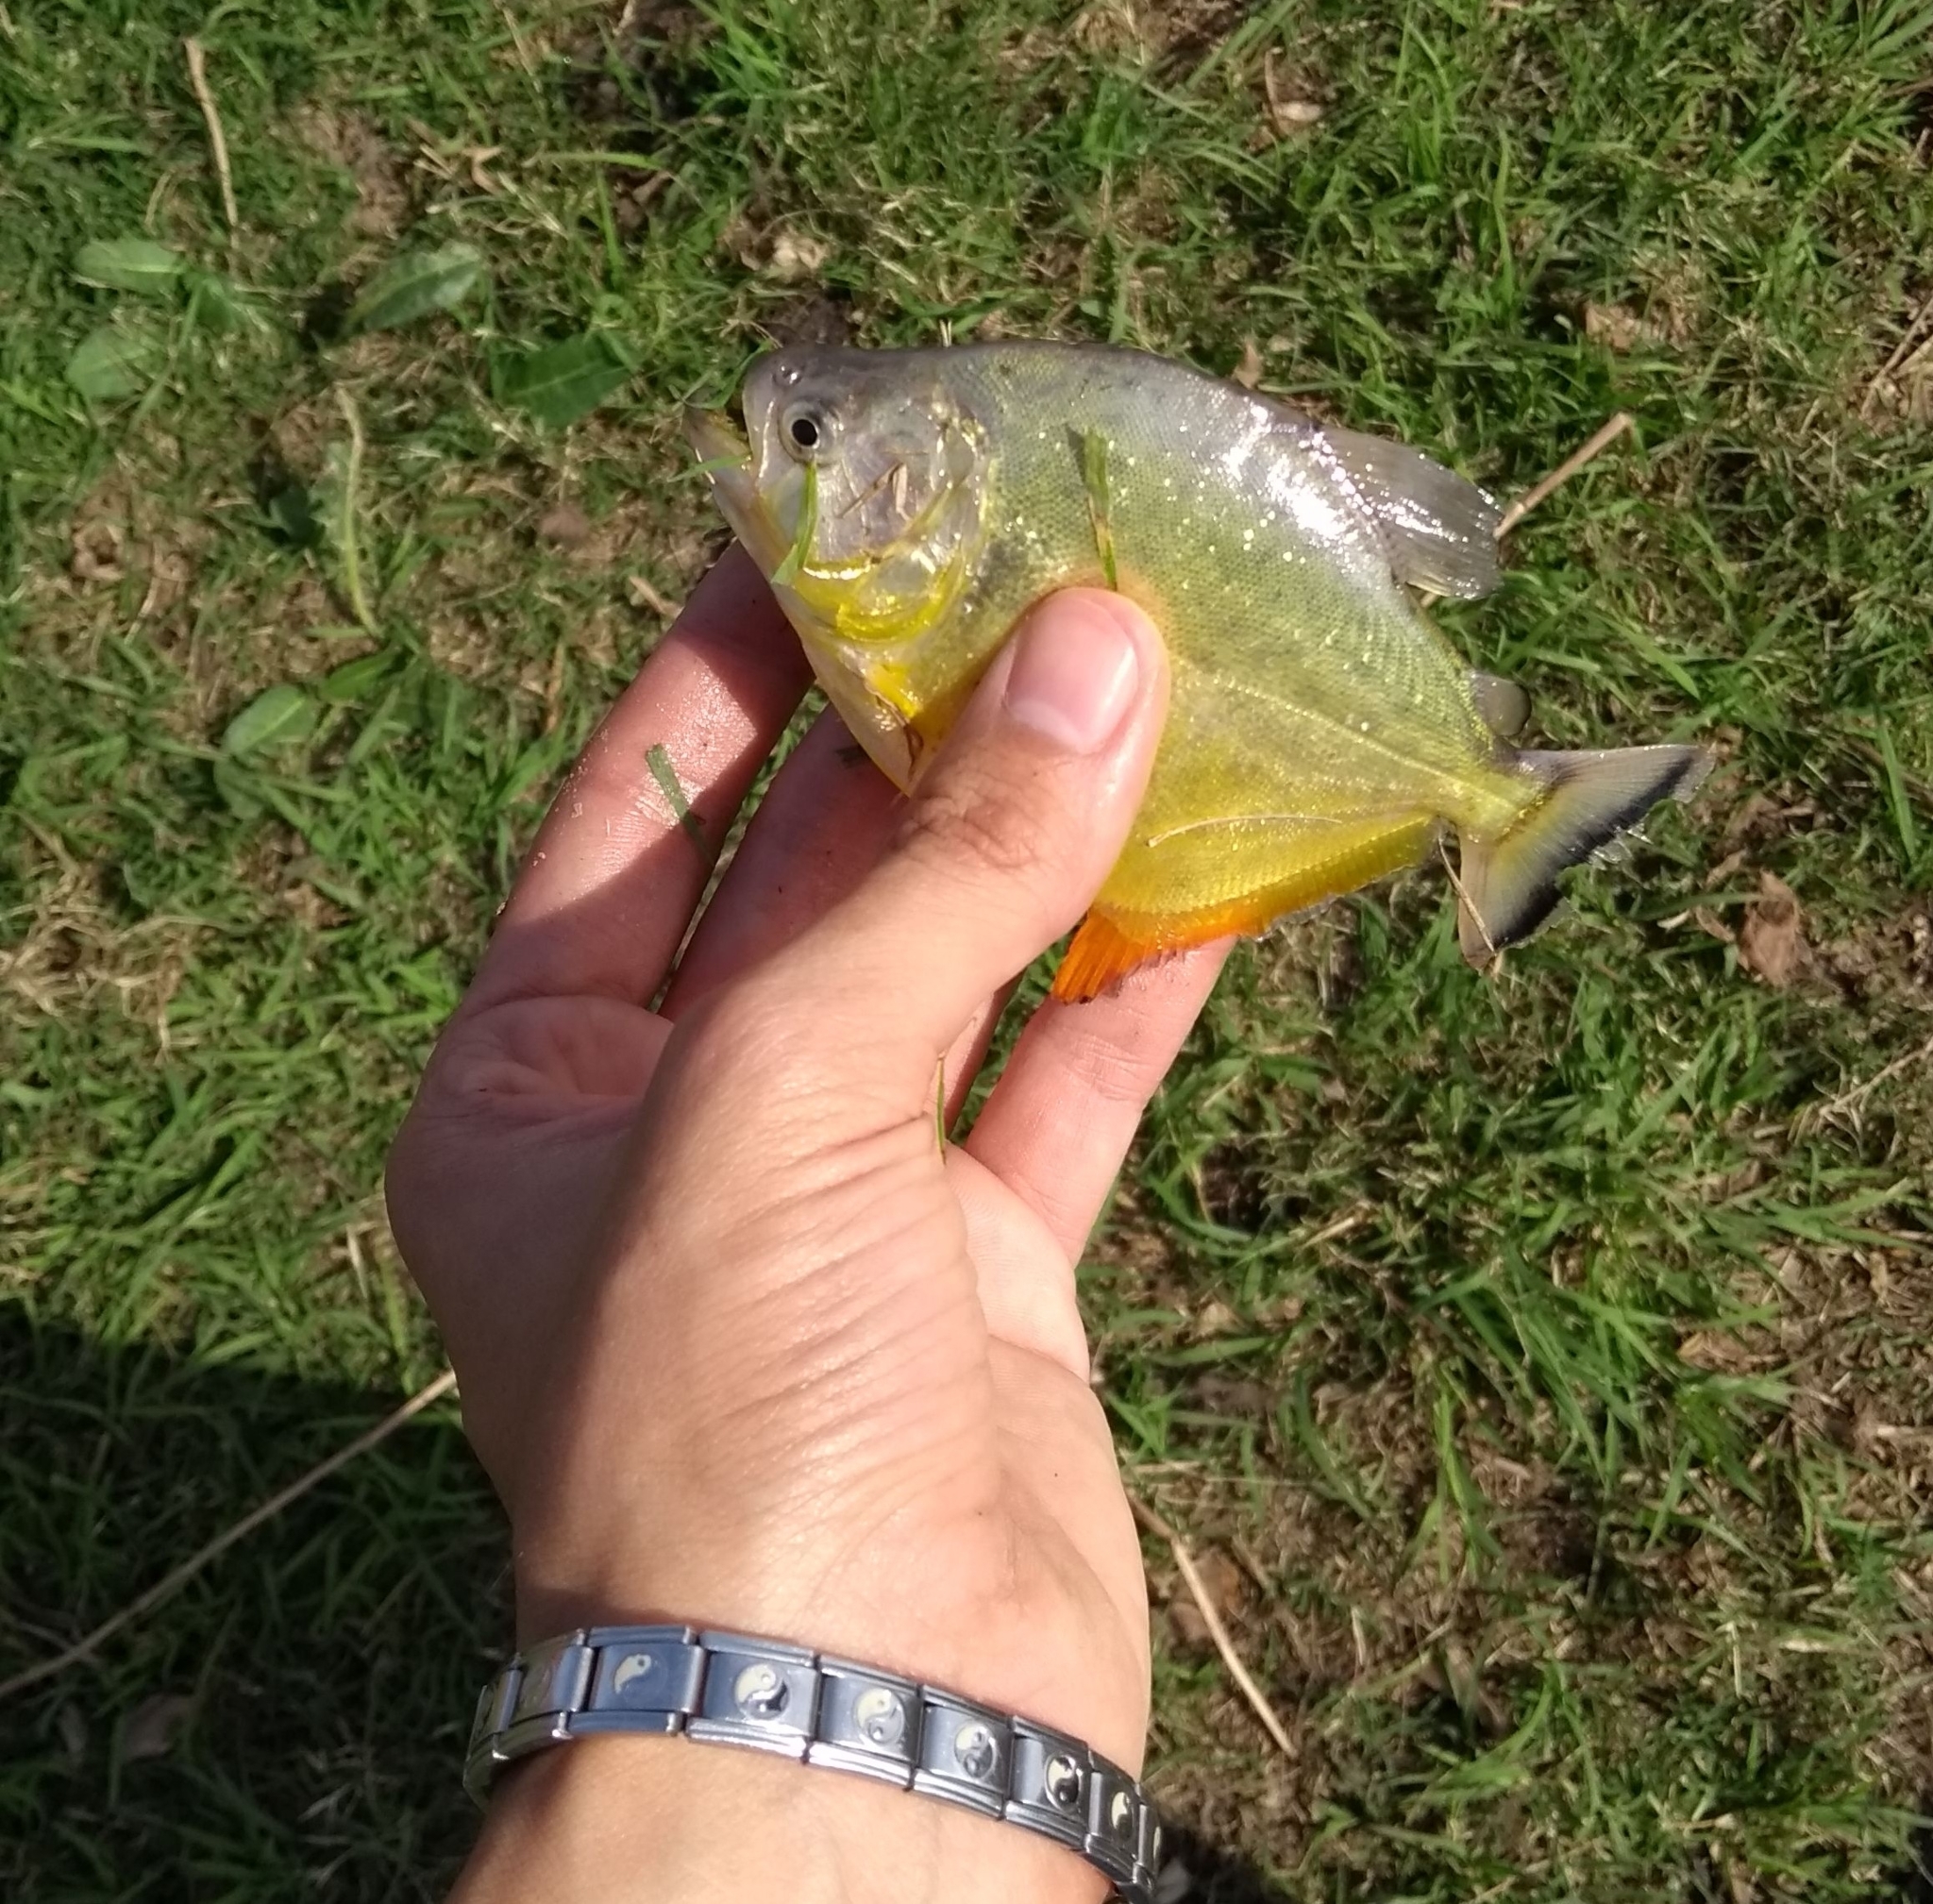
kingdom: Animalia
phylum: Chordata
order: Characiformes
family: Serrasalmidae
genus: Serrasalmus
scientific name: Serrasalmus maculatus
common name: Speckled piranha
